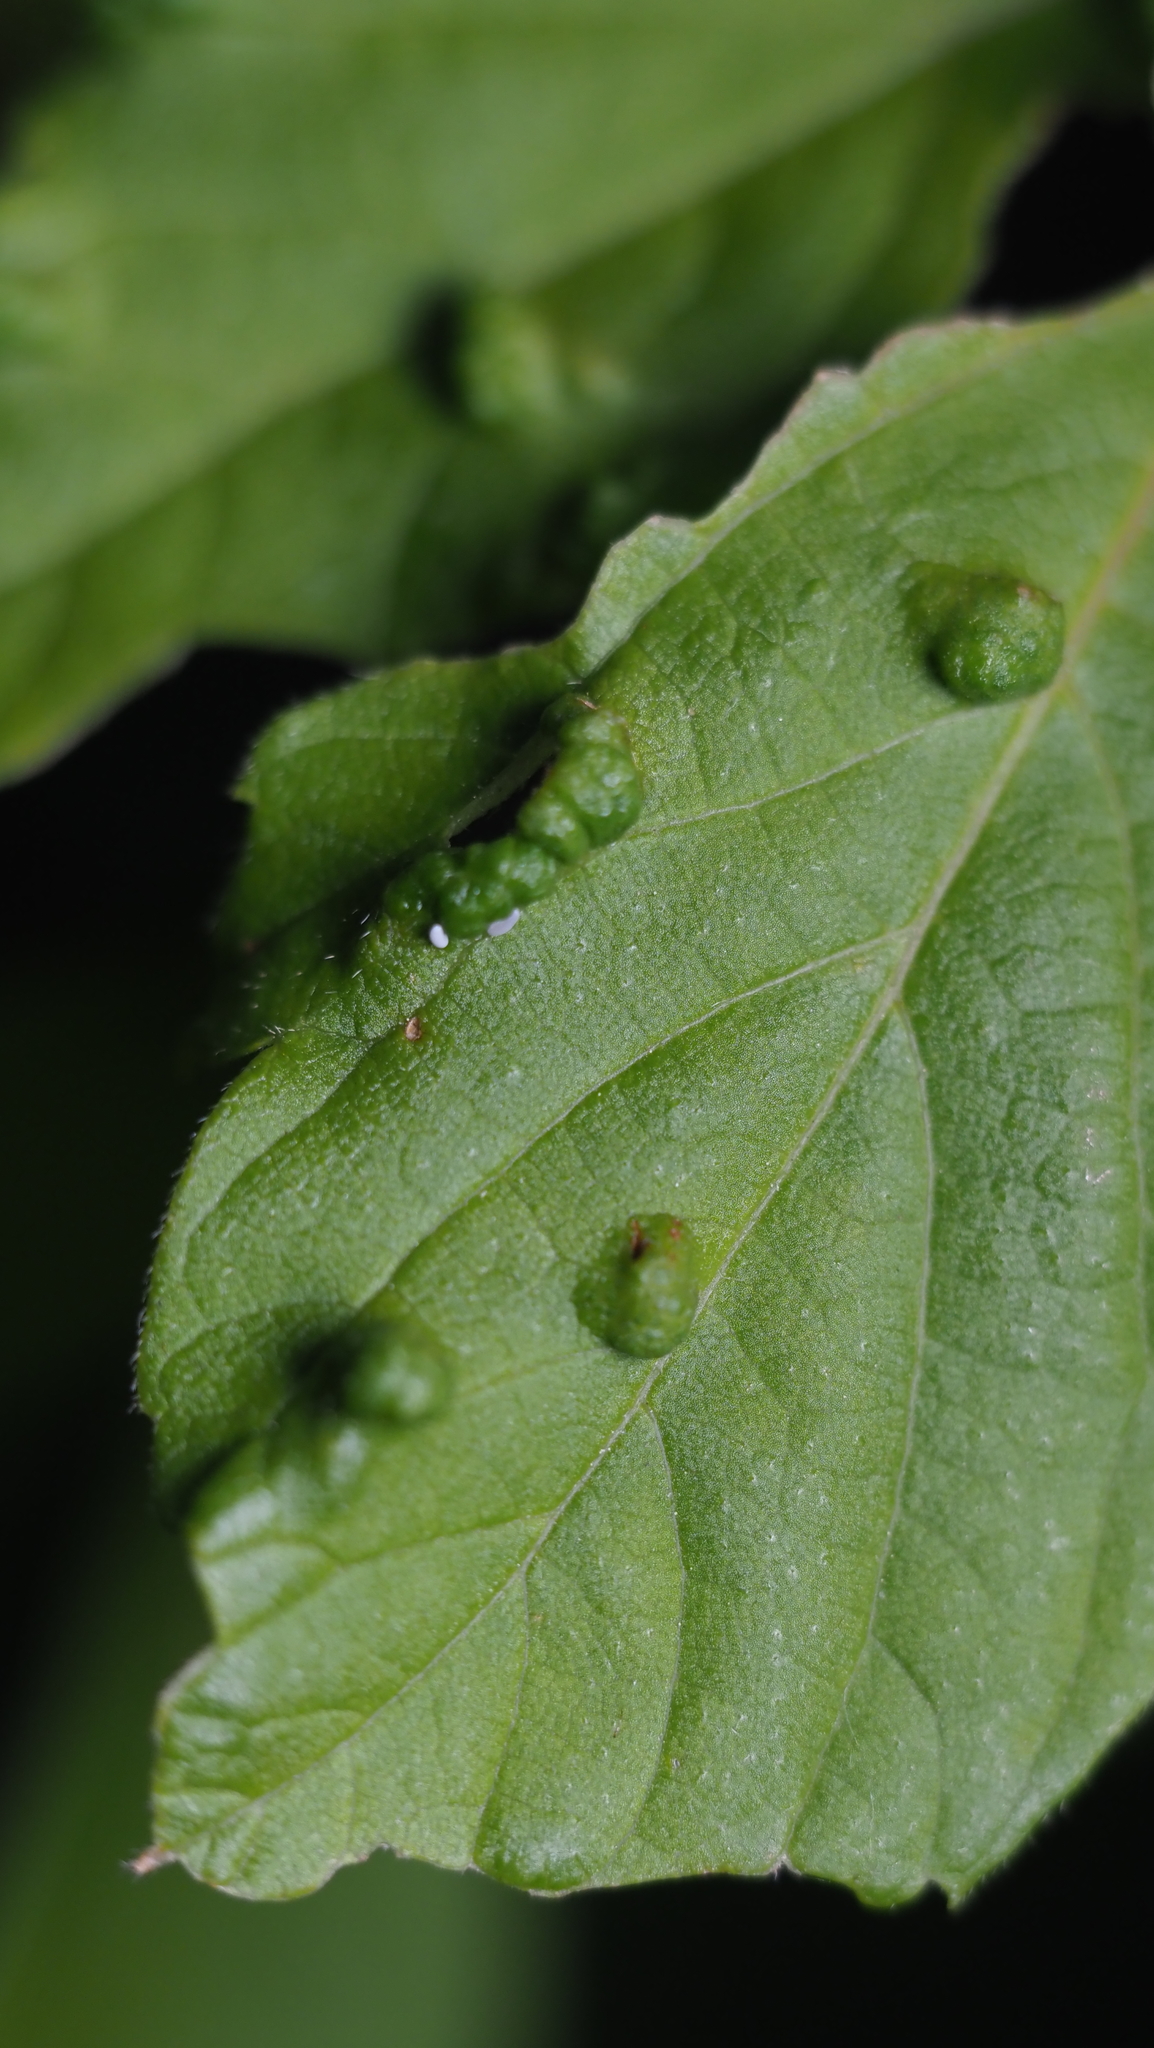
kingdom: Animalia
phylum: Arthropoda
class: Arachnida
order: Trombidiformes
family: Eriophyidae
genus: Aceria
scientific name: Aceria
